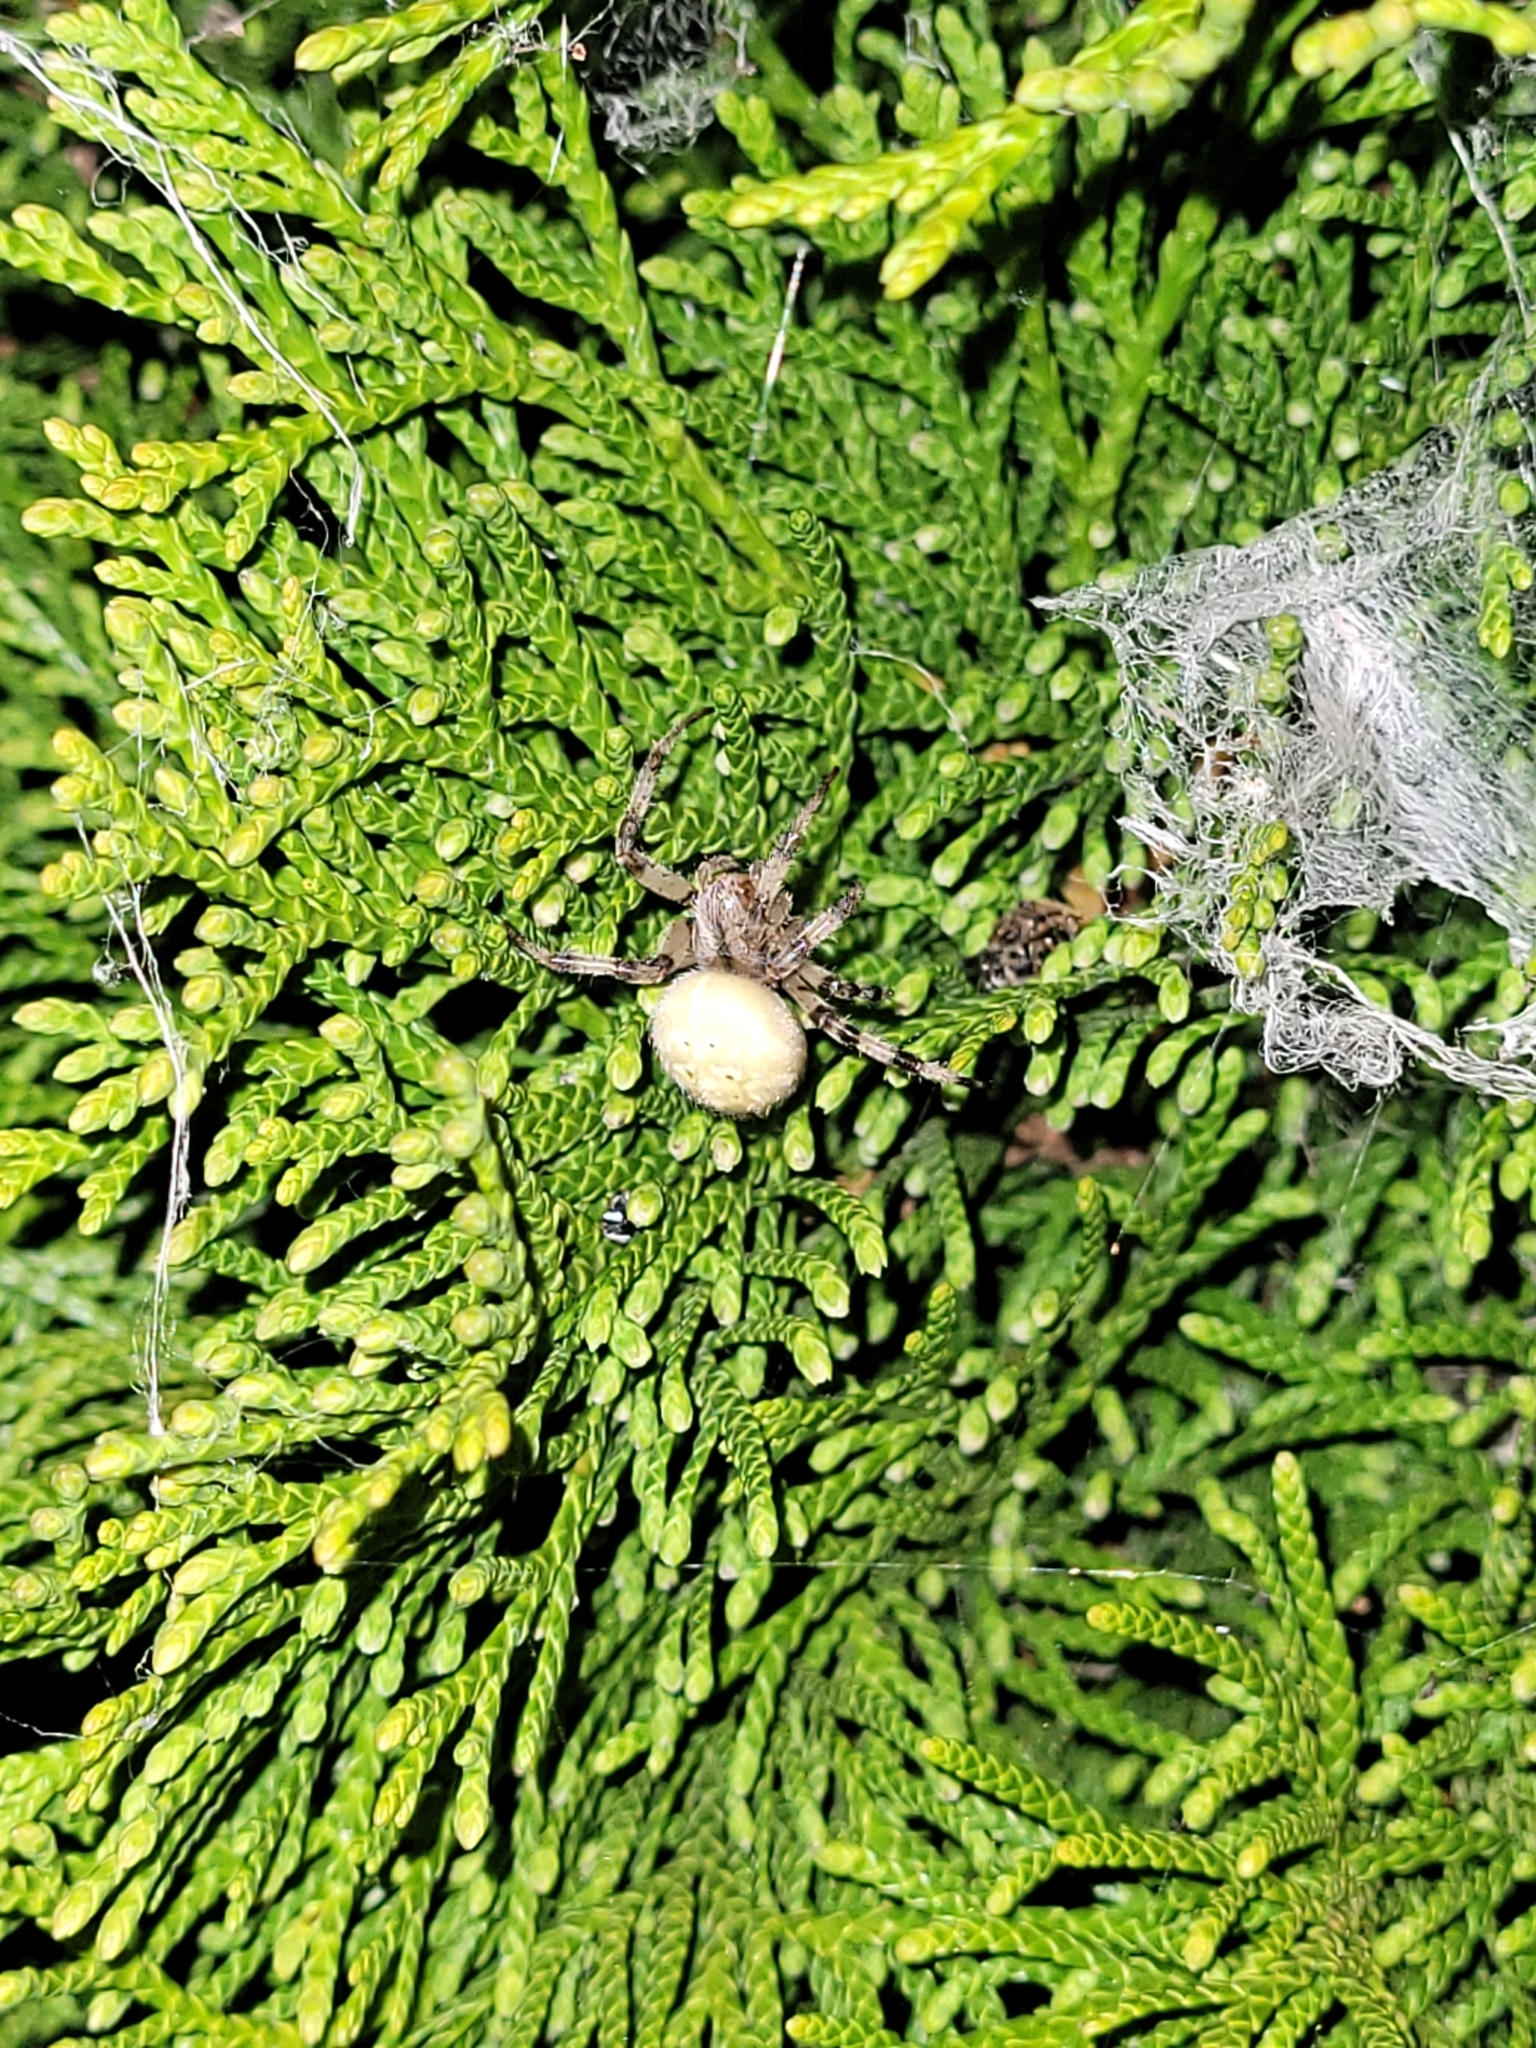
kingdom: Animalia
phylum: Arthropoda
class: Arachnida
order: Araneae
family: Araneidae
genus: Araneus
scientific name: Araneus quadratus
